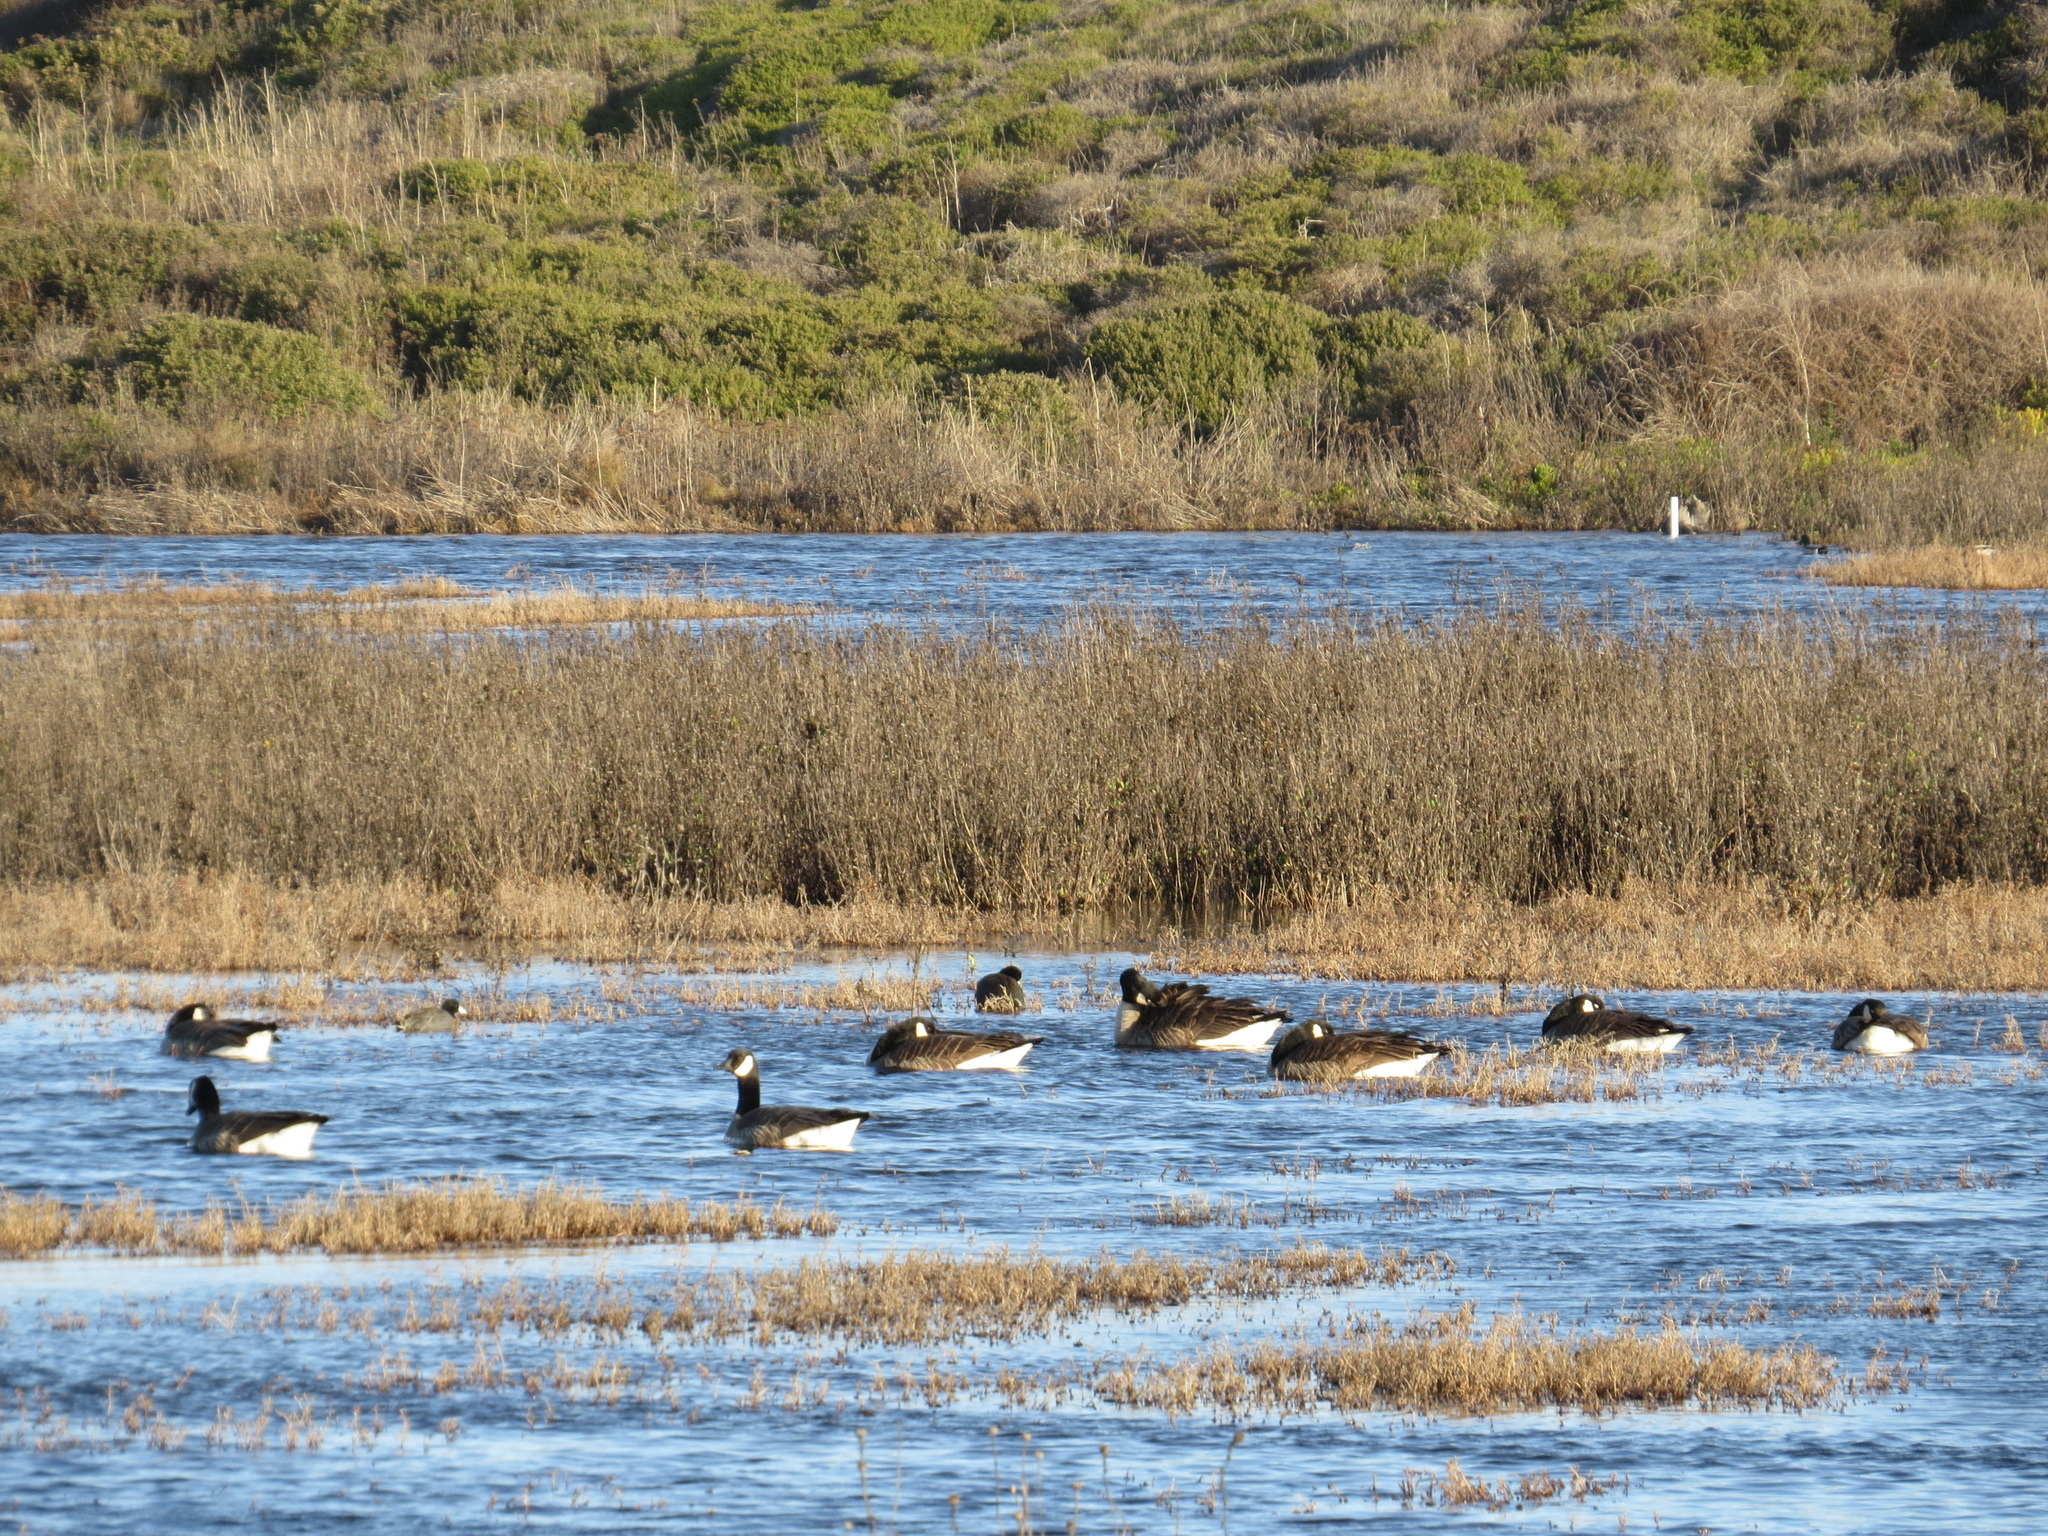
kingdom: Animalia
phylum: Chordata
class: Aves
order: Anseriformes
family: Anatidae
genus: Branta
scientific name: Branta canadensis
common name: Canada goose
